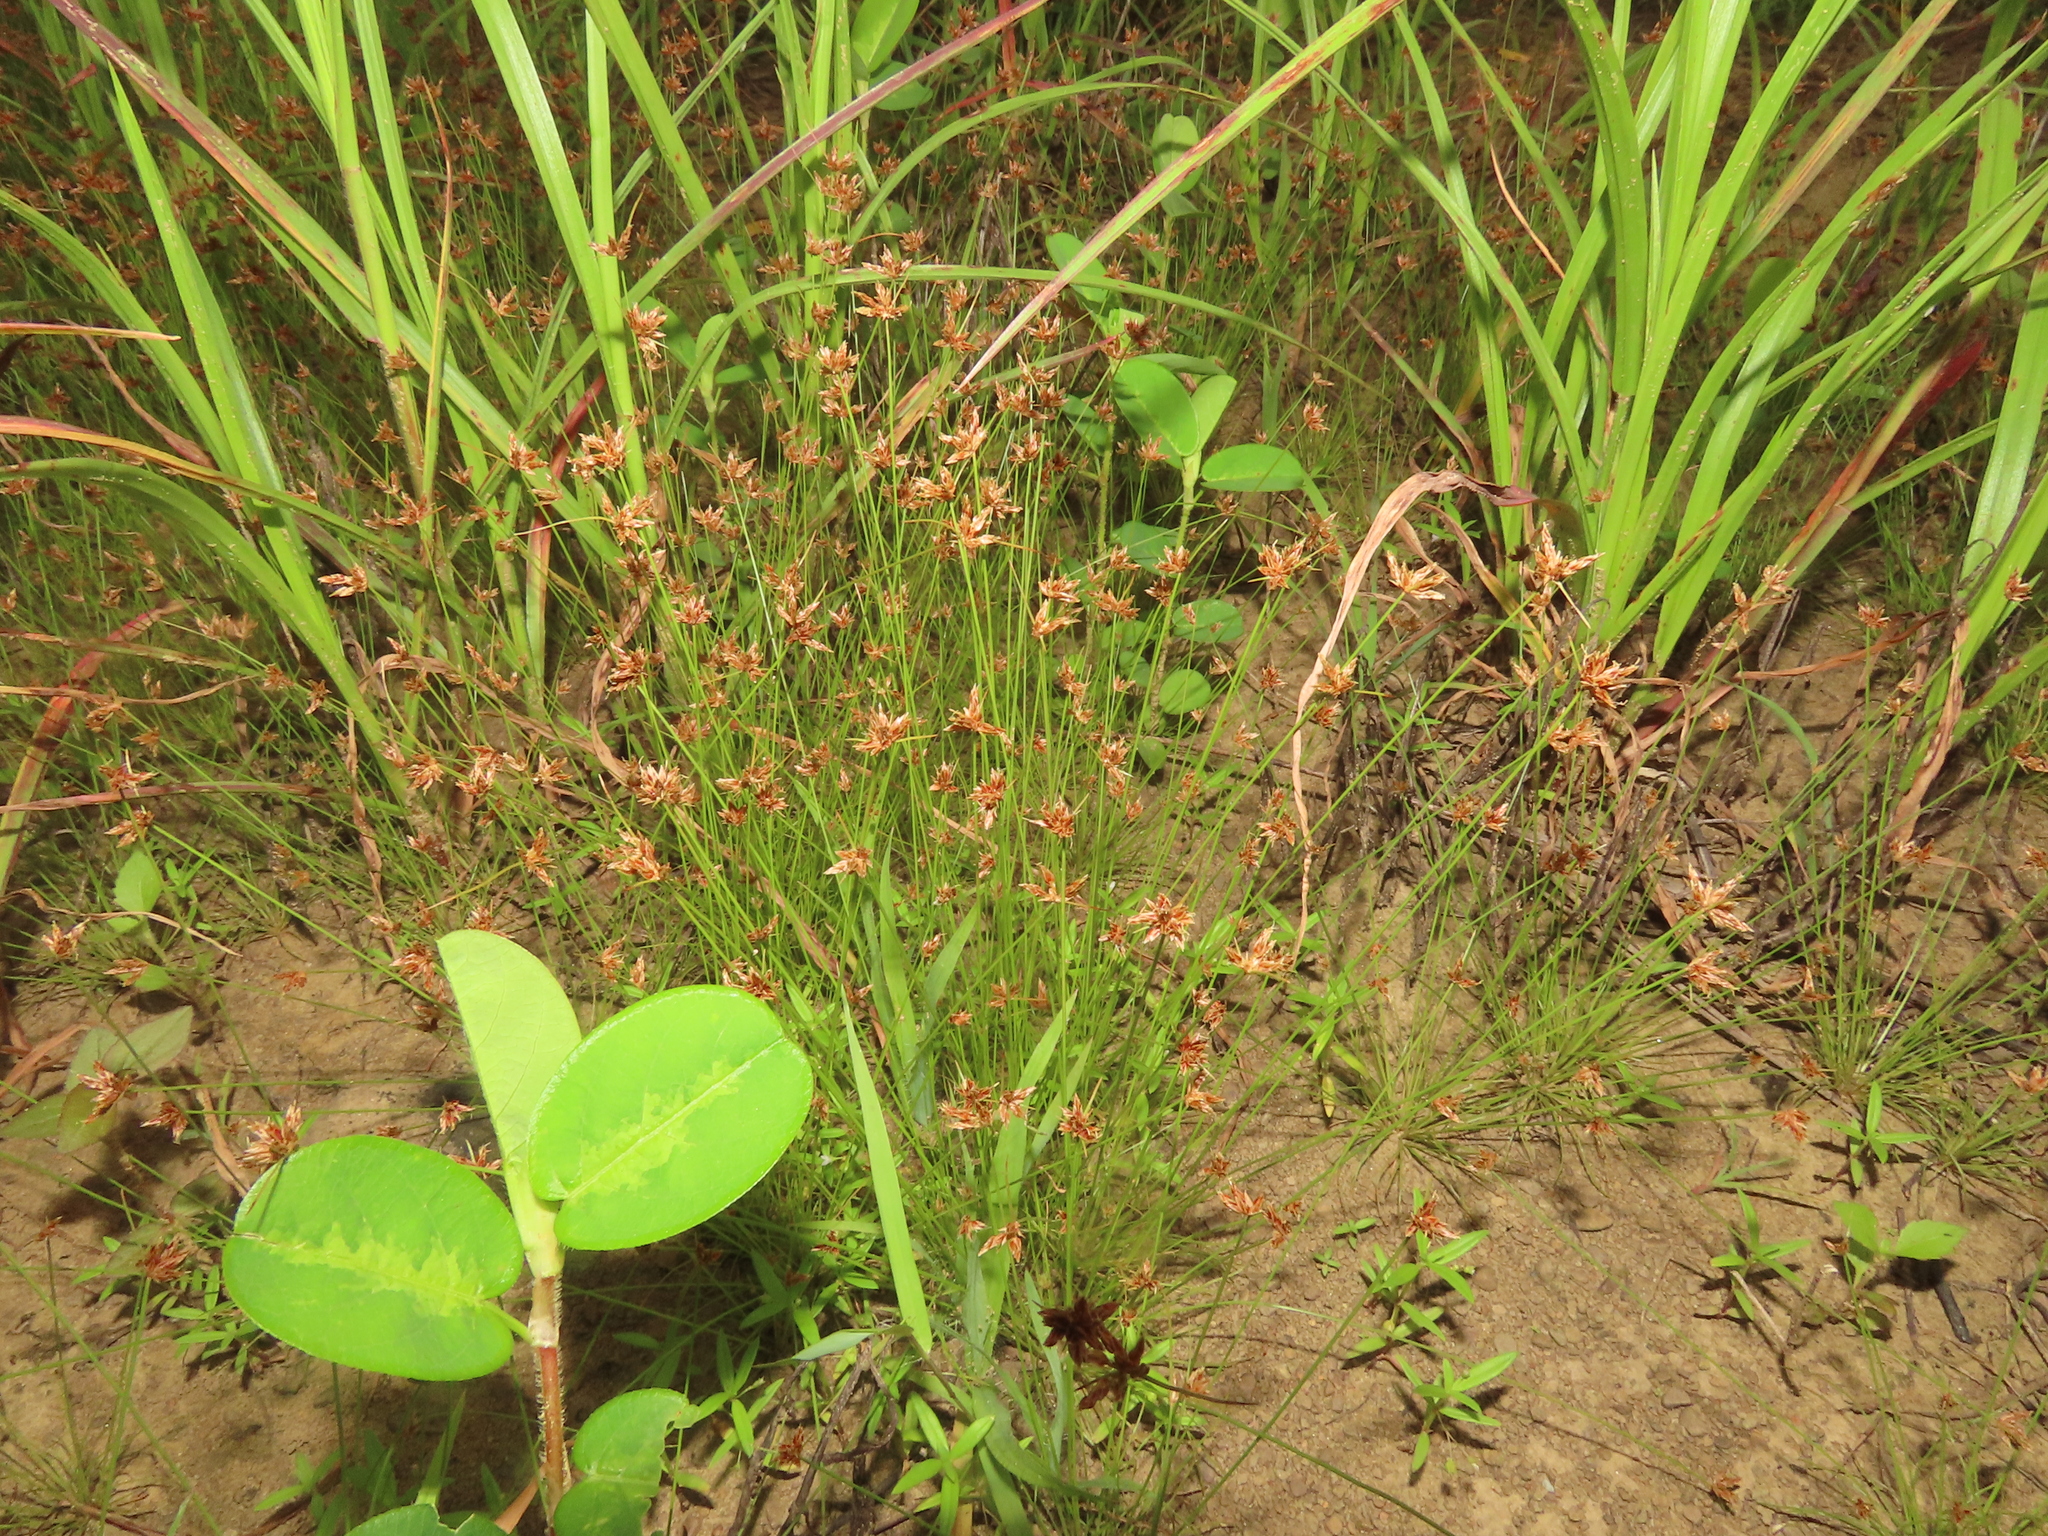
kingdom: Plantae
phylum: Tracheophyta
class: Liliopsida
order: Poales
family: Cyperaceae
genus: Bulbostylis
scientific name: Bulbostylis barbata
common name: Watergrass
